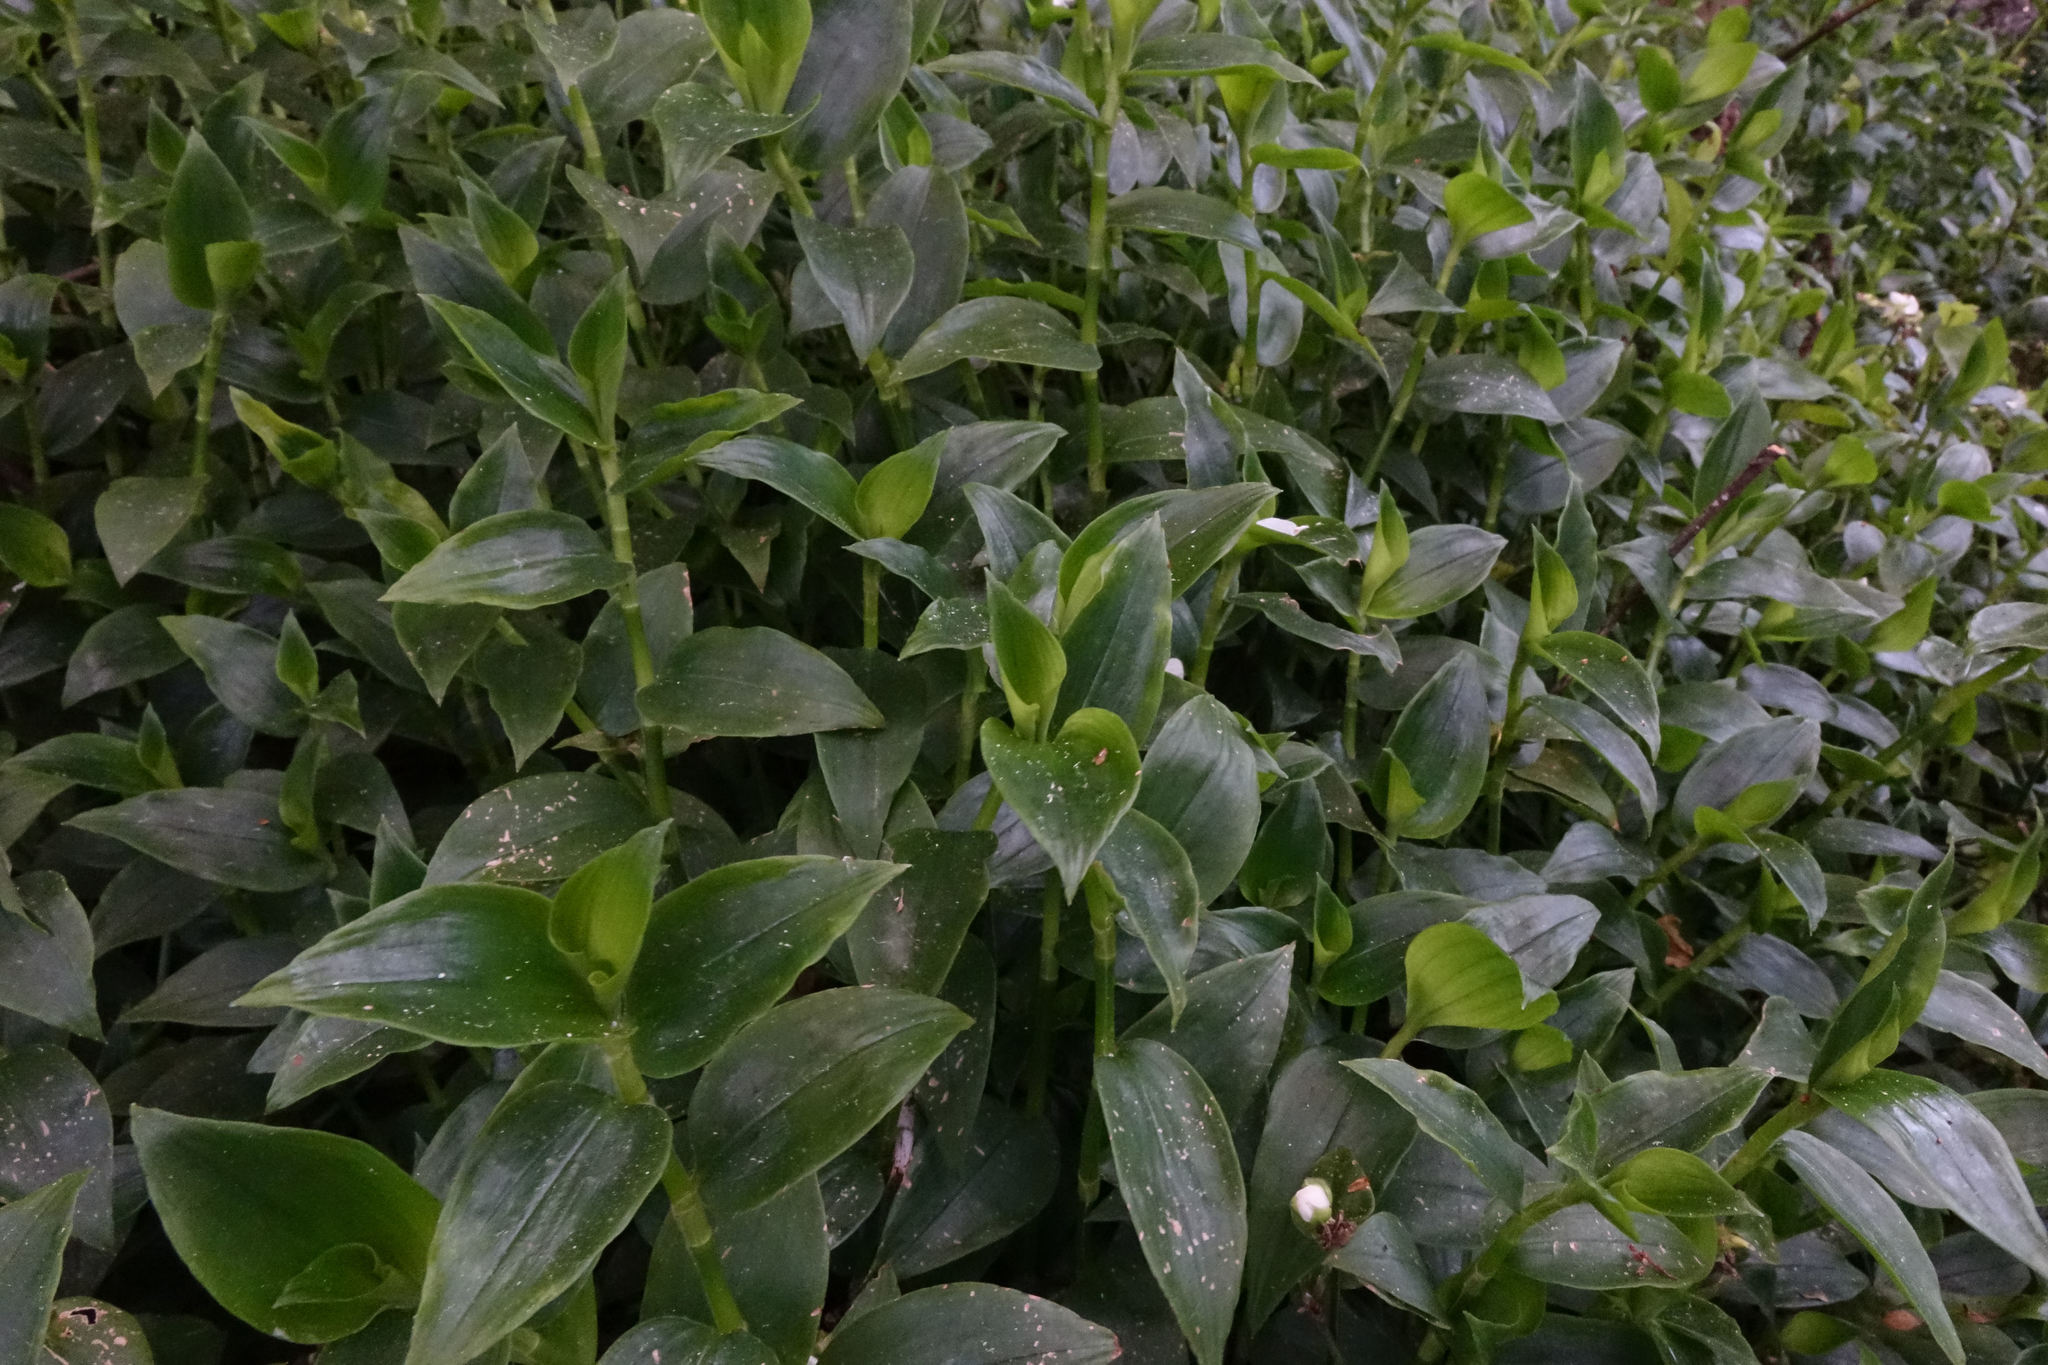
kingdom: Plantae
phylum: Tracheophyta
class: Liliopsida
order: Commelinales
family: Commelinaceae
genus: Tradescantia
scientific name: Tradescantia fluminensis
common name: Wandering-jew
